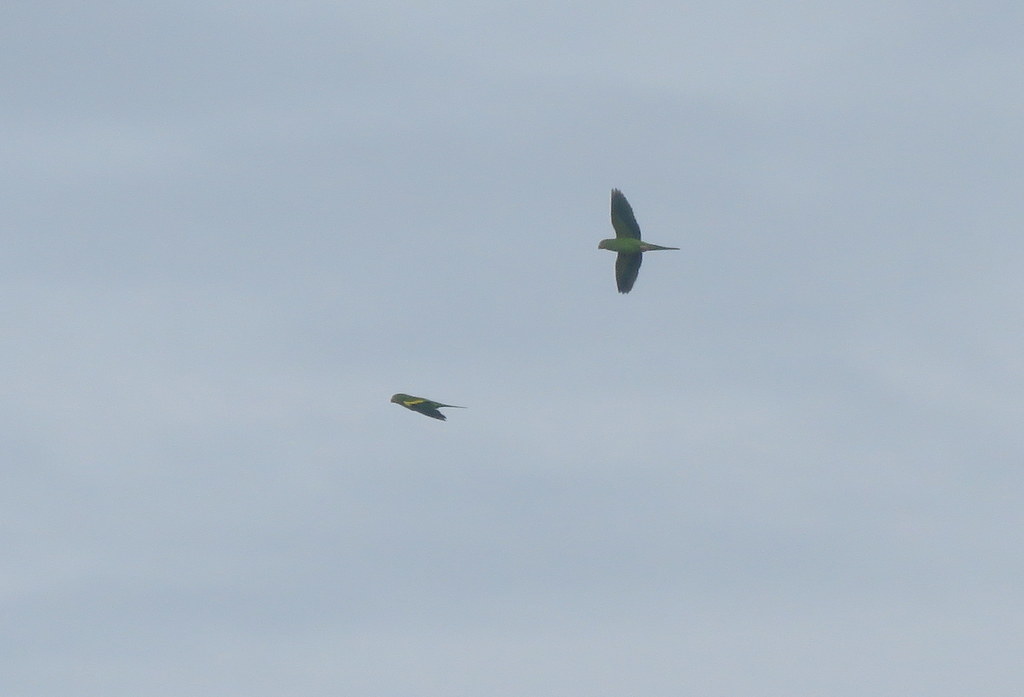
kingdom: Animalia
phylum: Chordata
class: Aves
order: Psittaciformes
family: Psittacidae
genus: Brotogeris
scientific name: Brotogeris chiriri
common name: Yellow-chevroned parakeet
